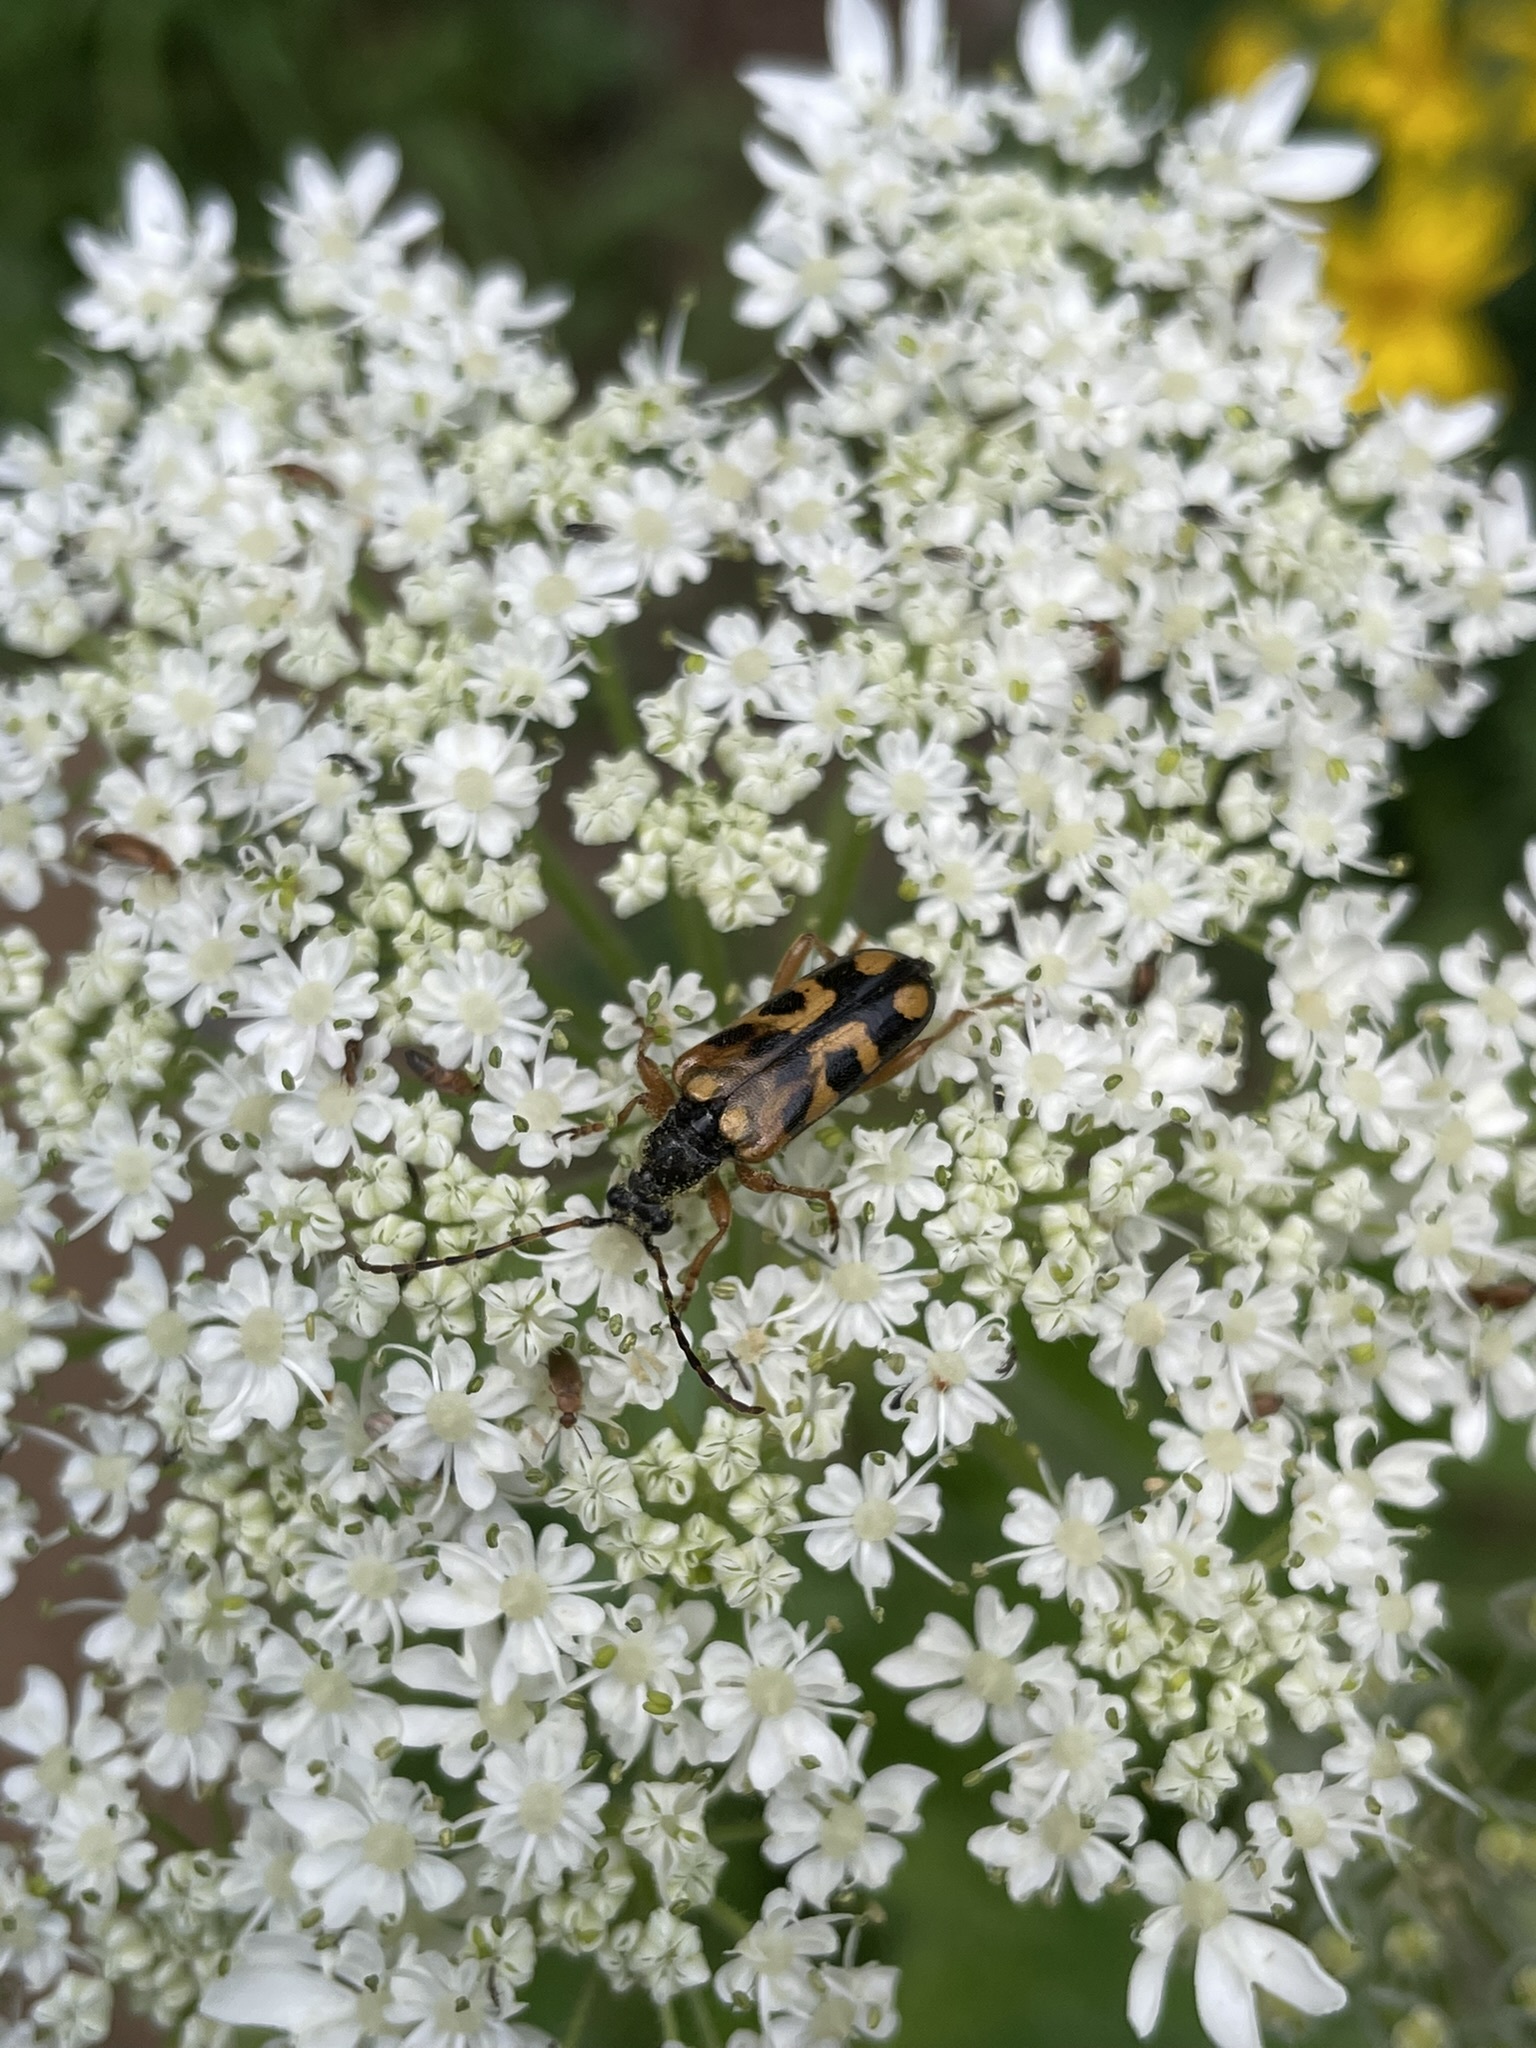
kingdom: Animalia
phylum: Arthropoda
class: Insecta
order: Coleoptera
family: Cerambycidae
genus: Xestoleptura
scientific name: Xestoleptura crassipes
